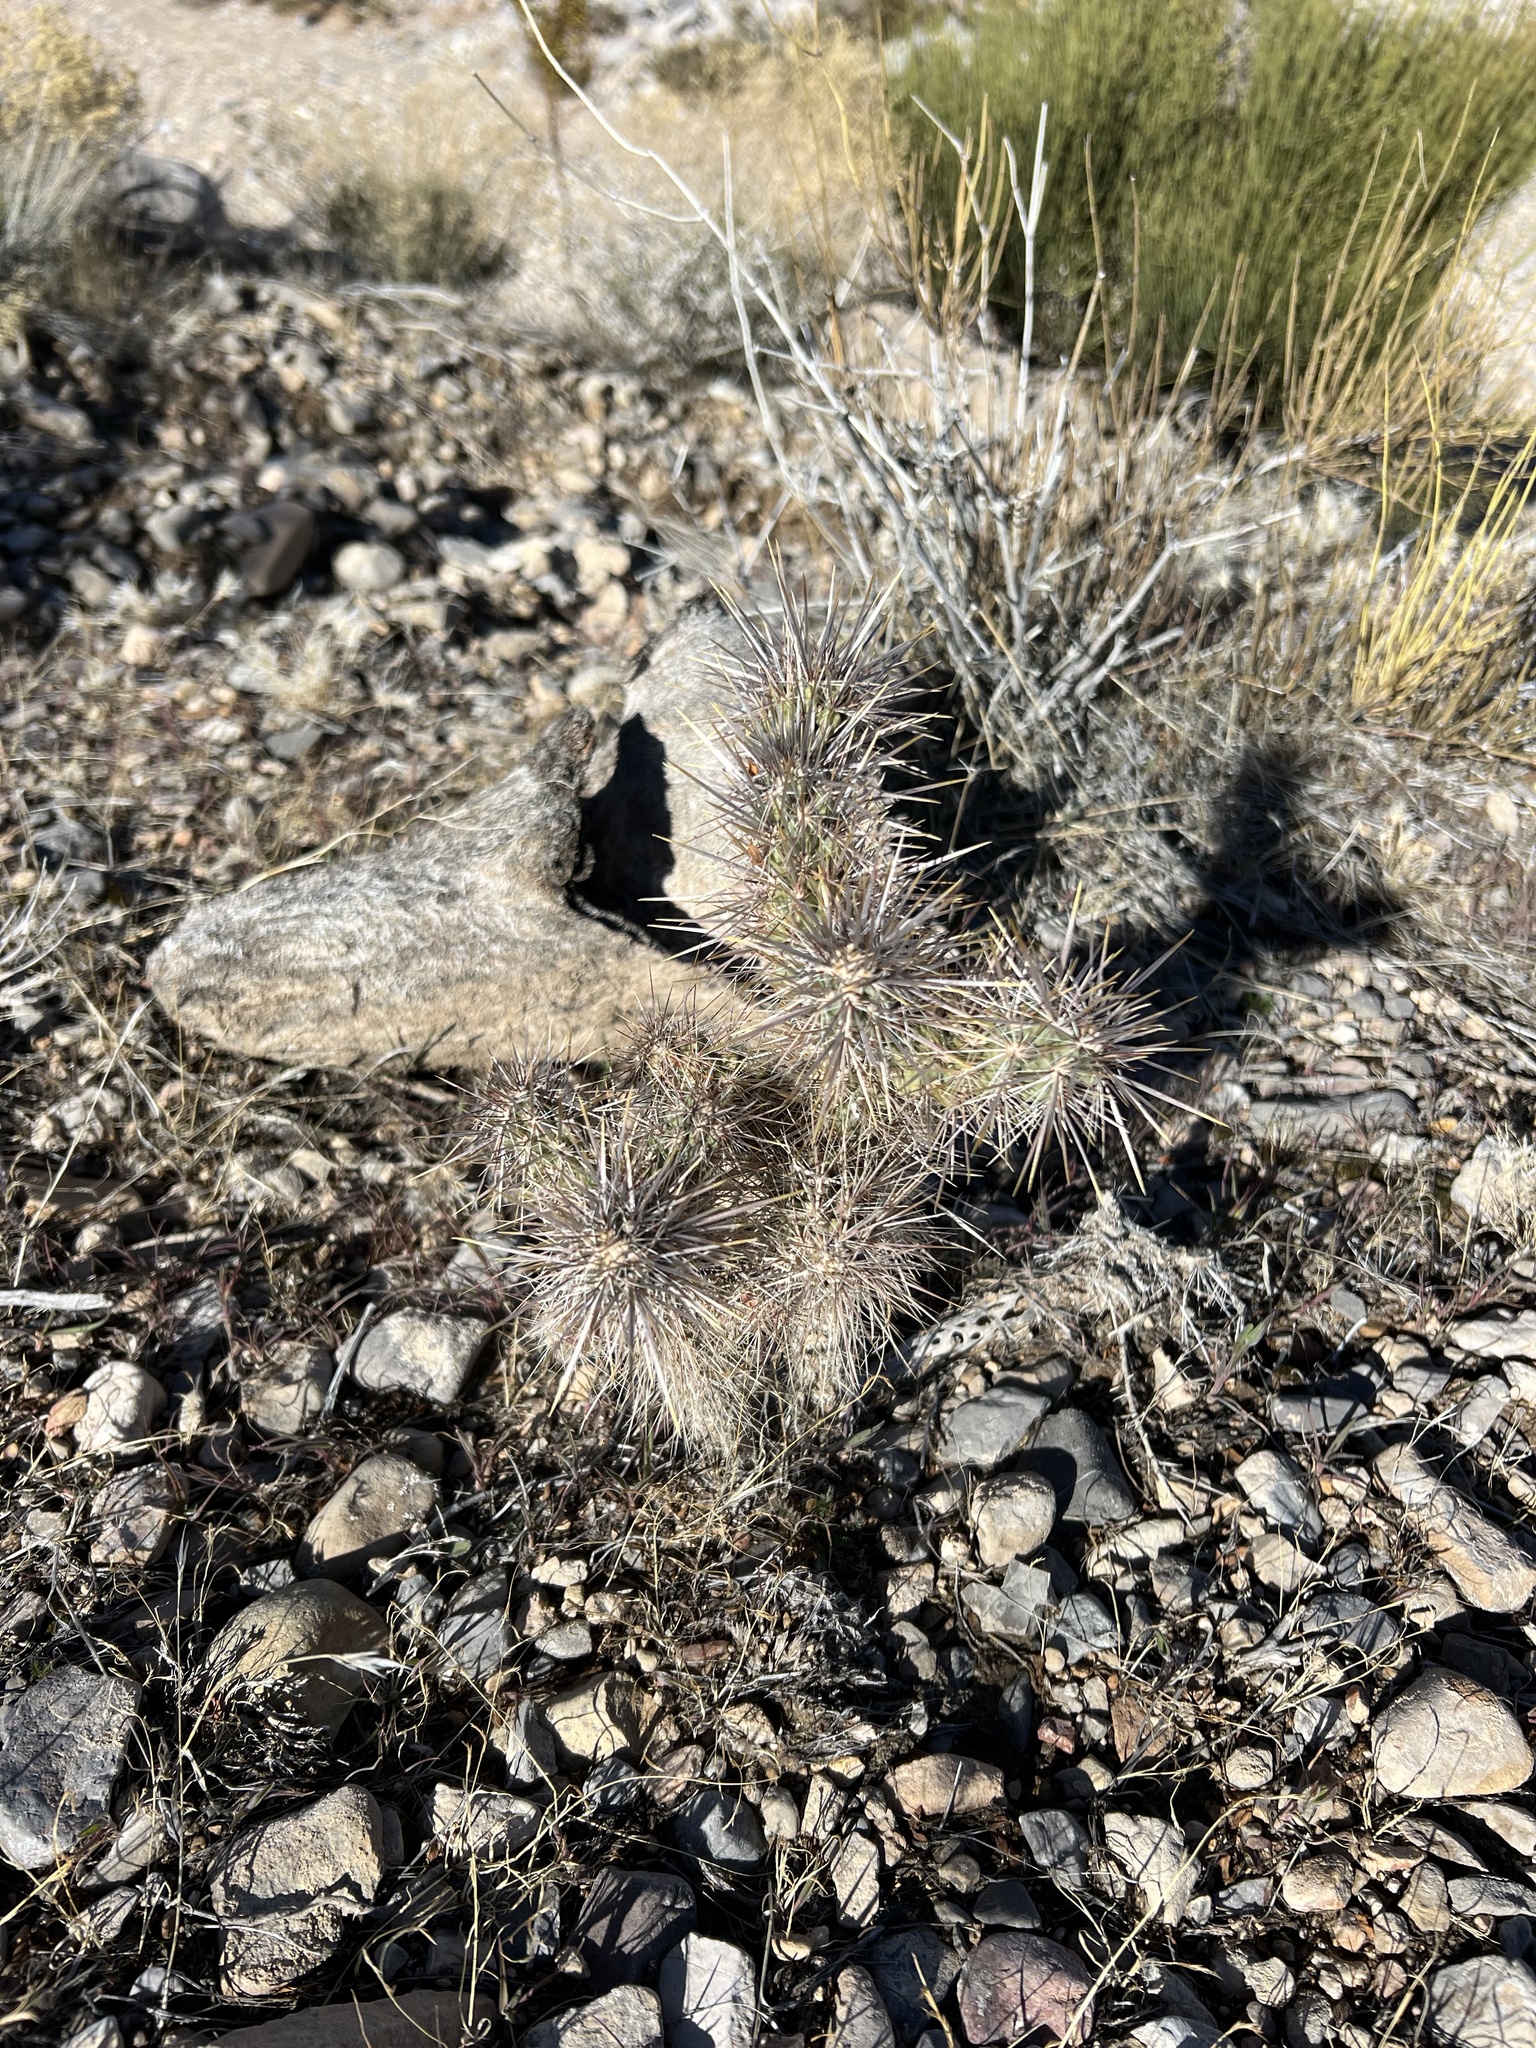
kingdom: Plantae
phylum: Tracheophyta
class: Magnoliopsida
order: Caryophyllales
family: Cactaceae
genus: Cylindropuntia
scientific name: Cylindropuntia echinocarpa
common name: Ground cholla
